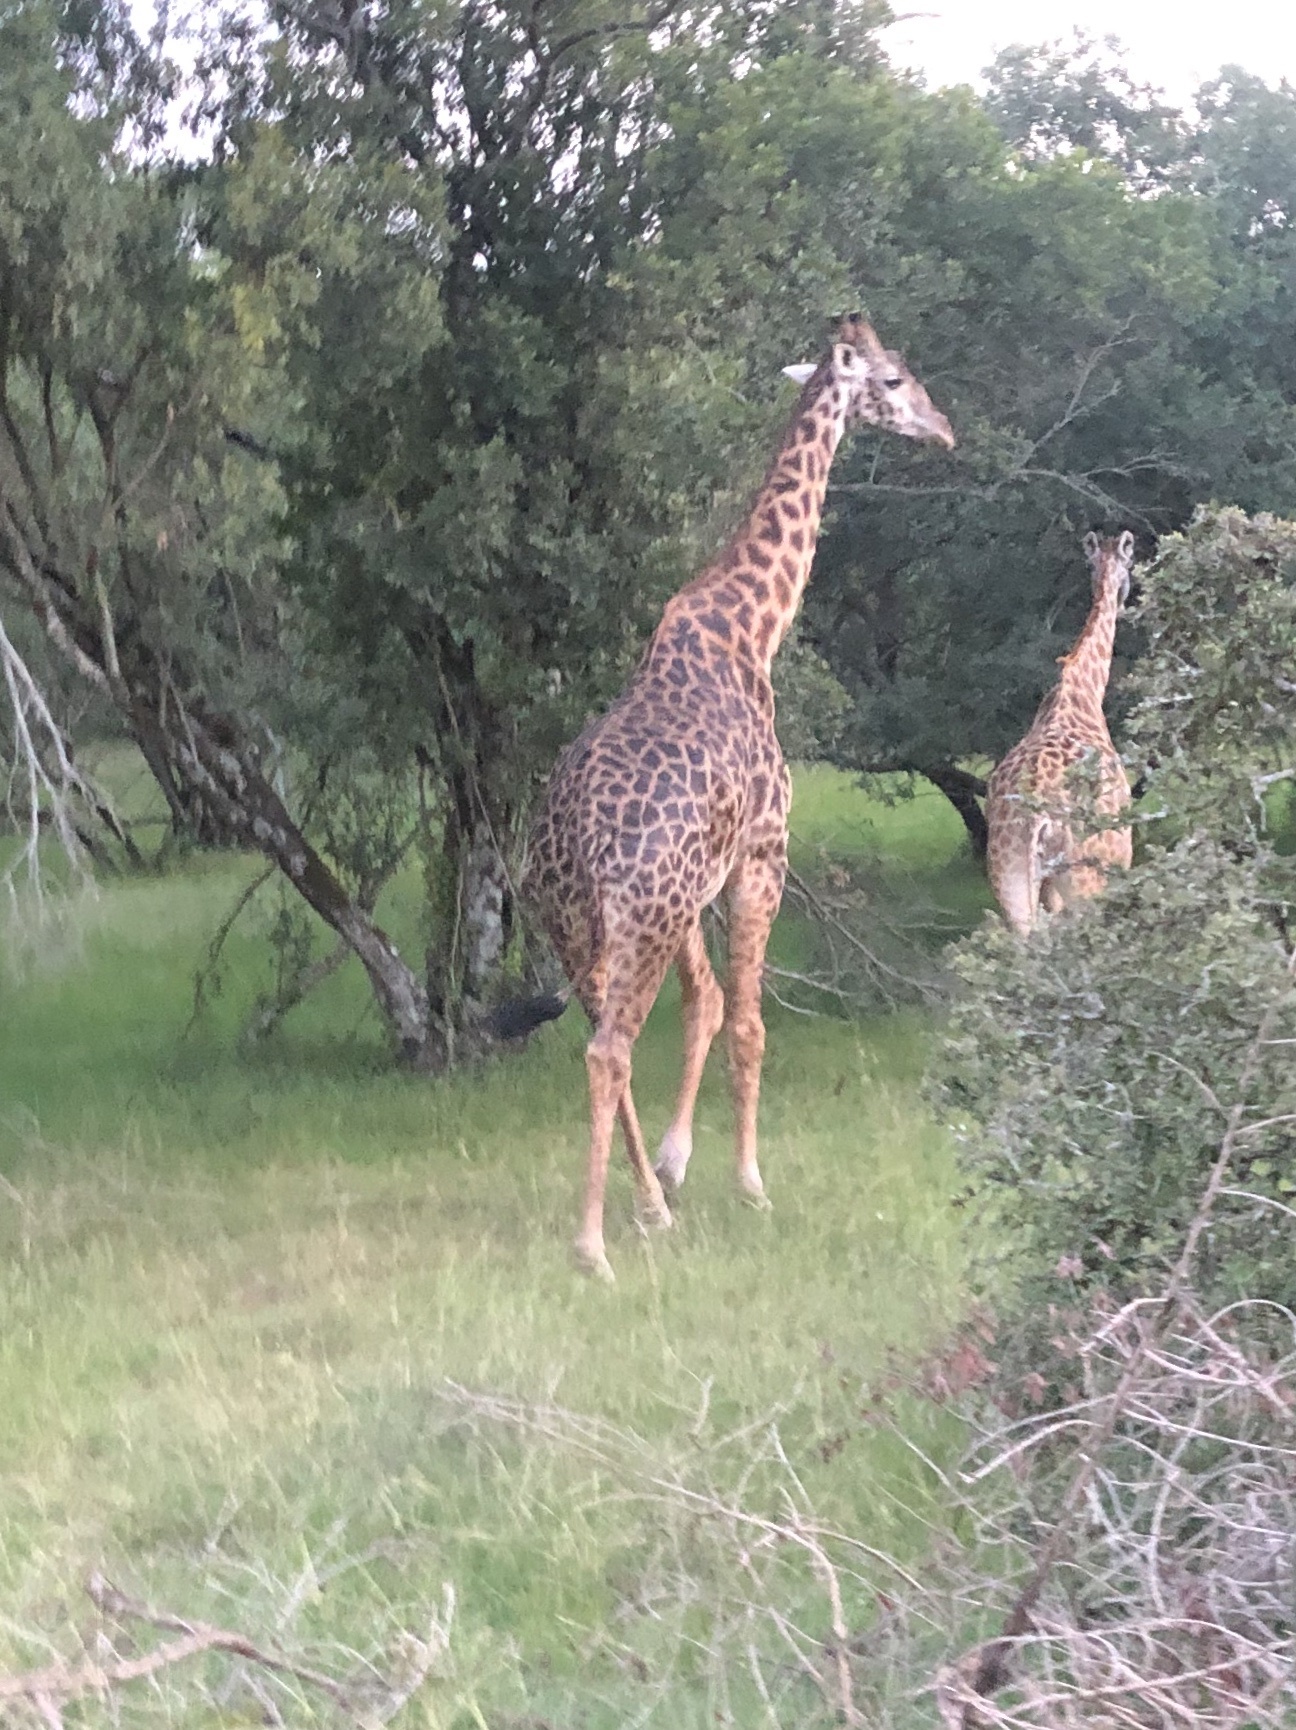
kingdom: Animalia
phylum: Chordata
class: Mammalia
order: Artiodactyla
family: Giraffidae
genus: Giraffa
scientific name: Giraffa tippelskirchi
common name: Masai giraffe
